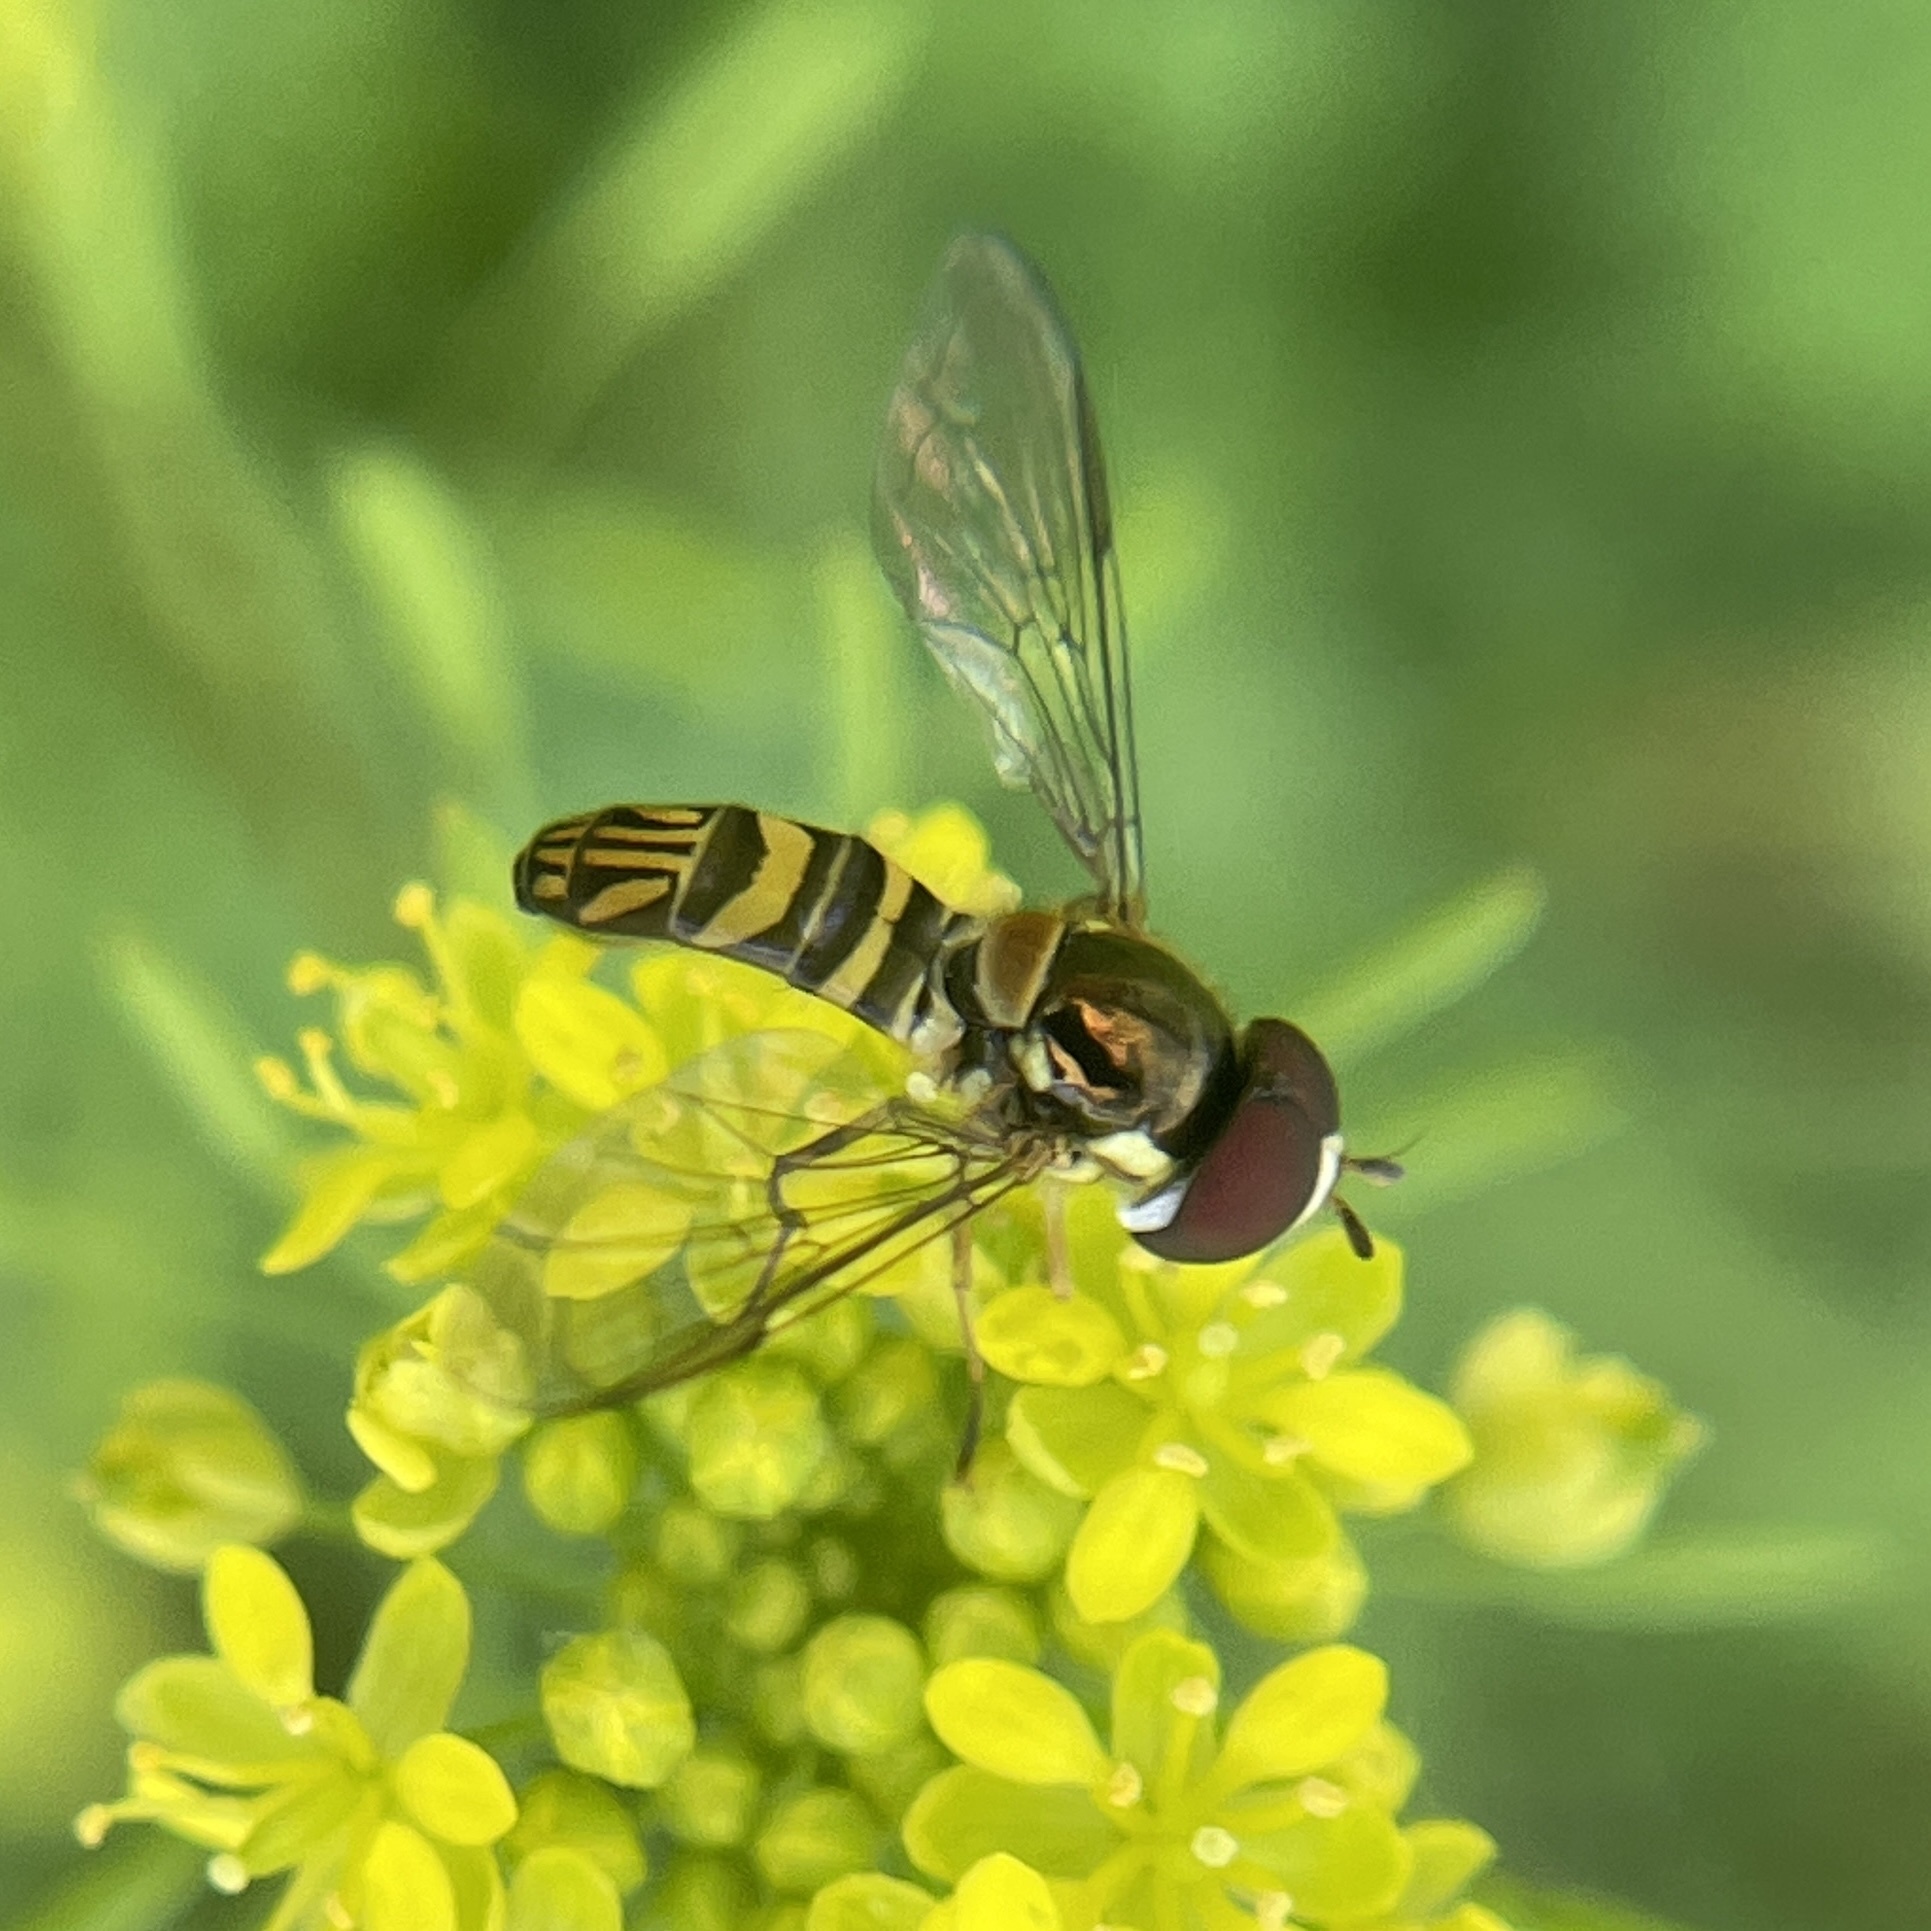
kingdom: Animalia
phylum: Arthropoda
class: Insecta
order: Diptera
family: Syrphidae
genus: Allograpta
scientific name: Allograpta obliqua
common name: Common oblique syrphid
